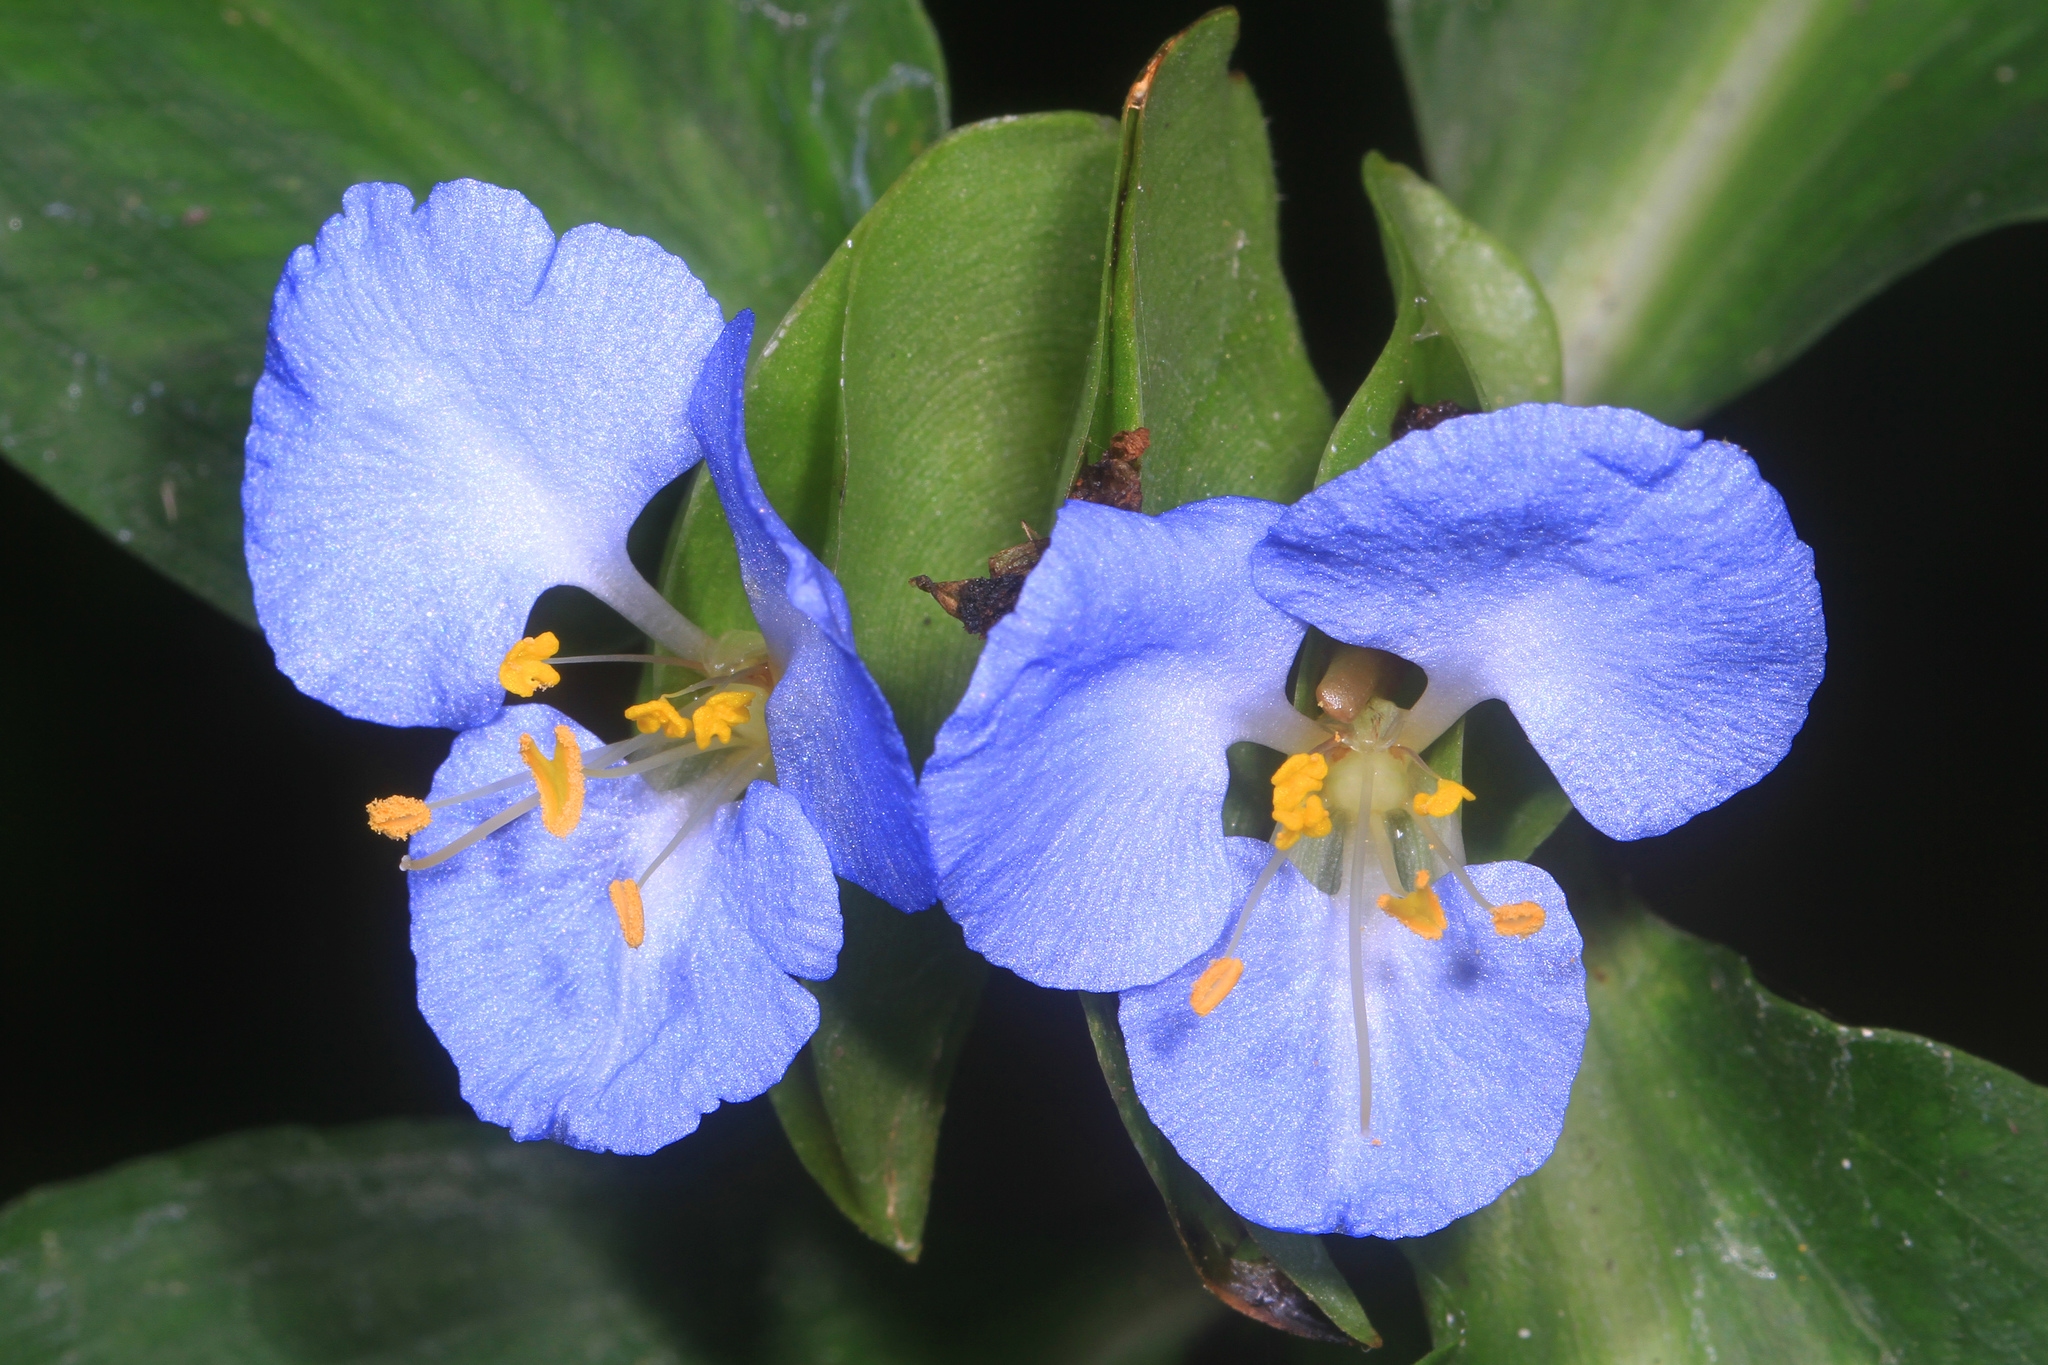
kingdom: Plantae
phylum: Tracheophyta
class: Liliopsida
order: Commelinales
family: Commelinaceae
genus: Commelina
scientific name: Commelina virginica
